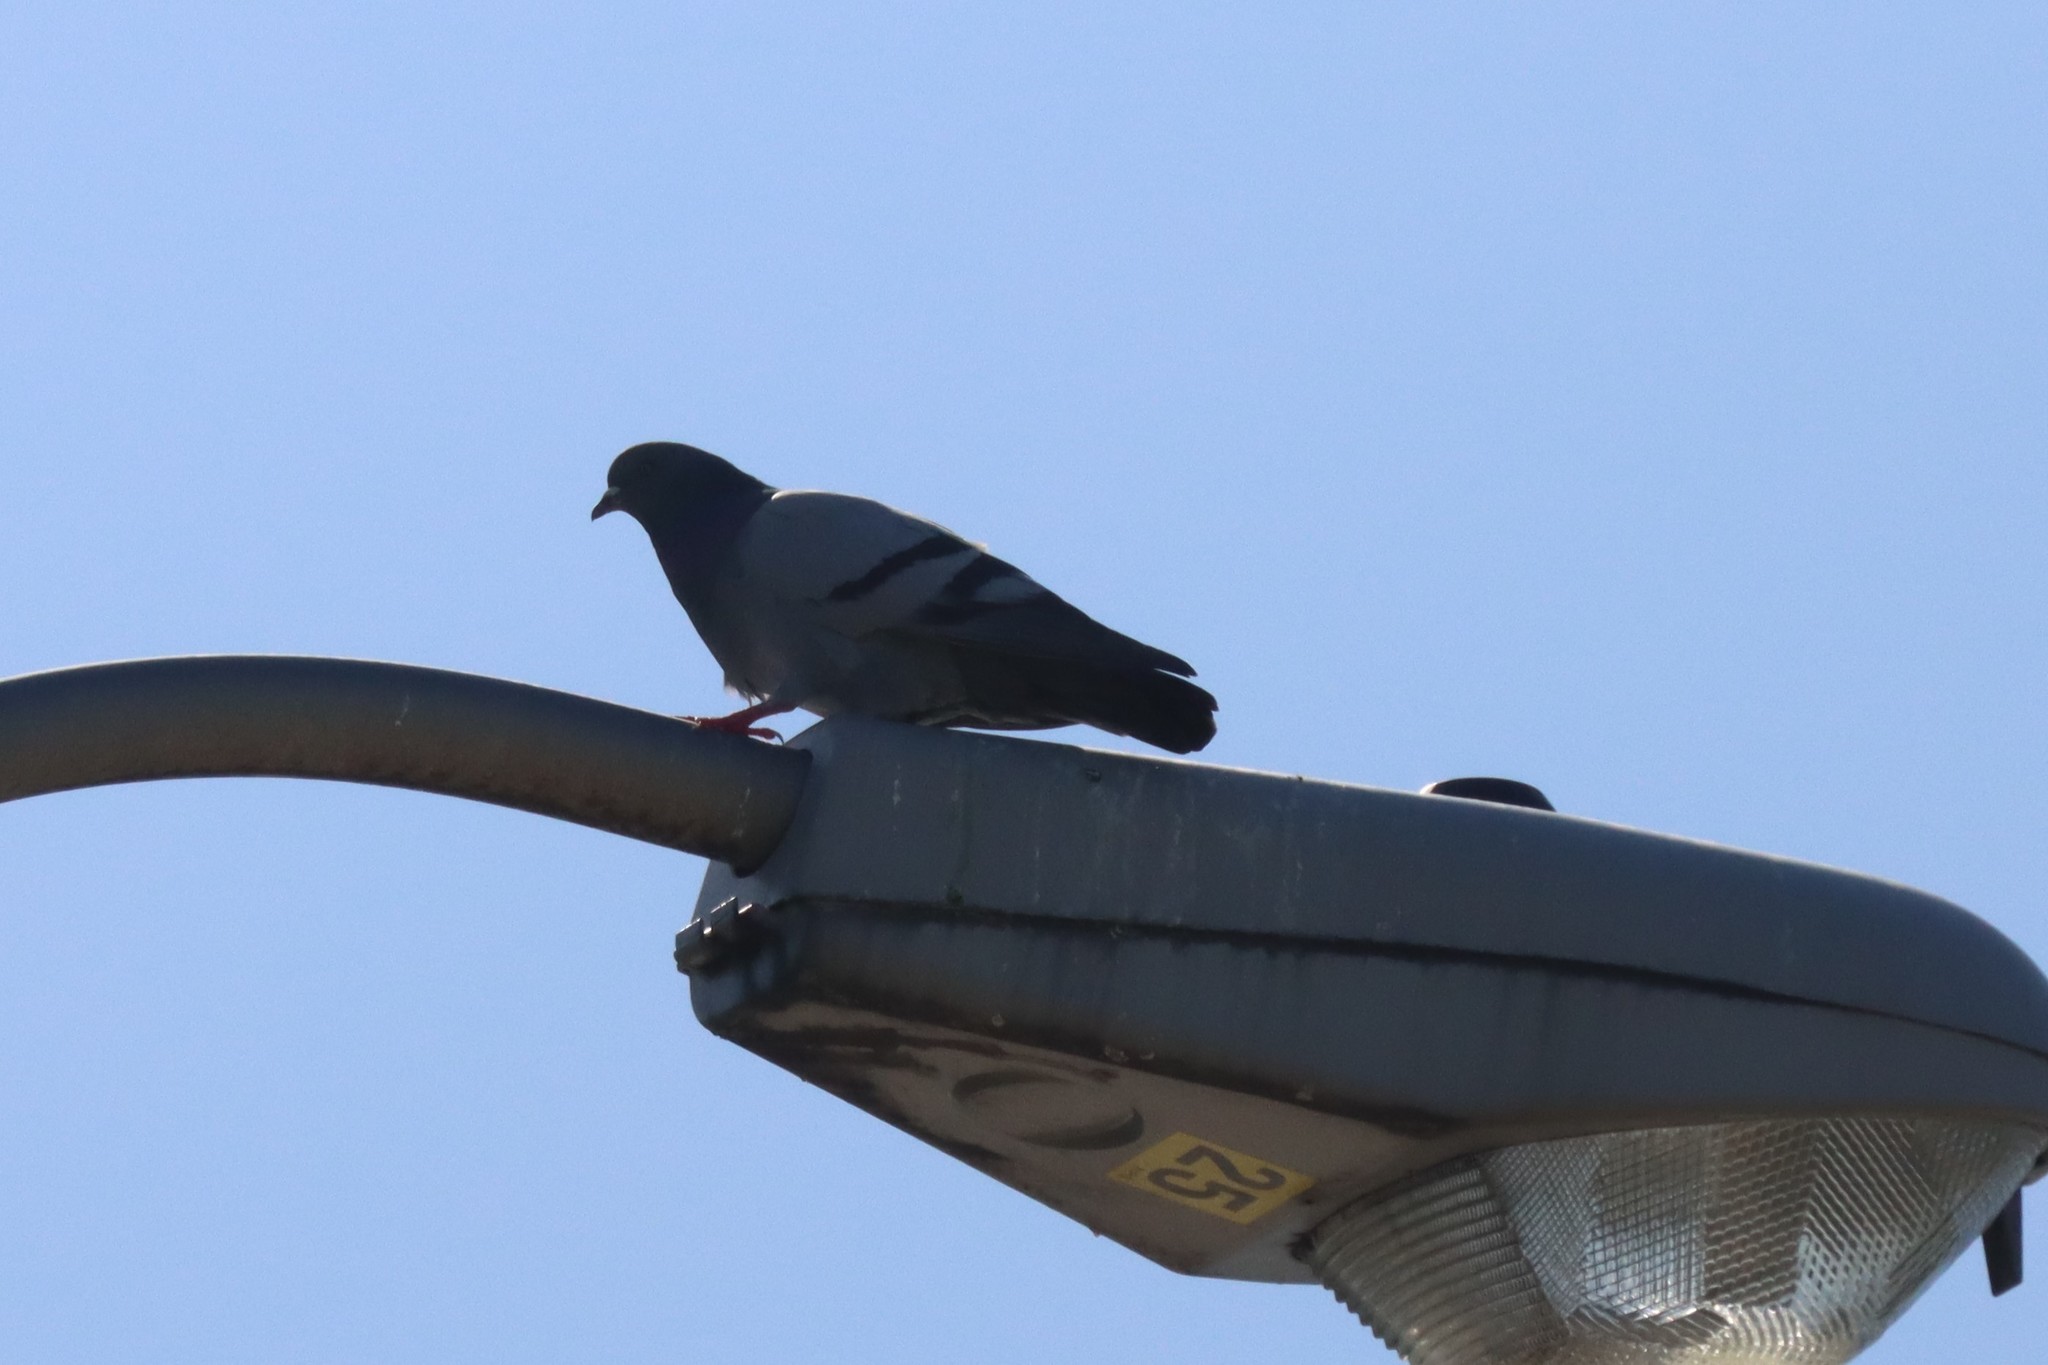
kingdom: Animalia
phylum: Chordata
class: Aves
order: Columbiformes
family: Columbidae
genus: Columba
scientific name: Columba livia
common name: Rock pigeon
